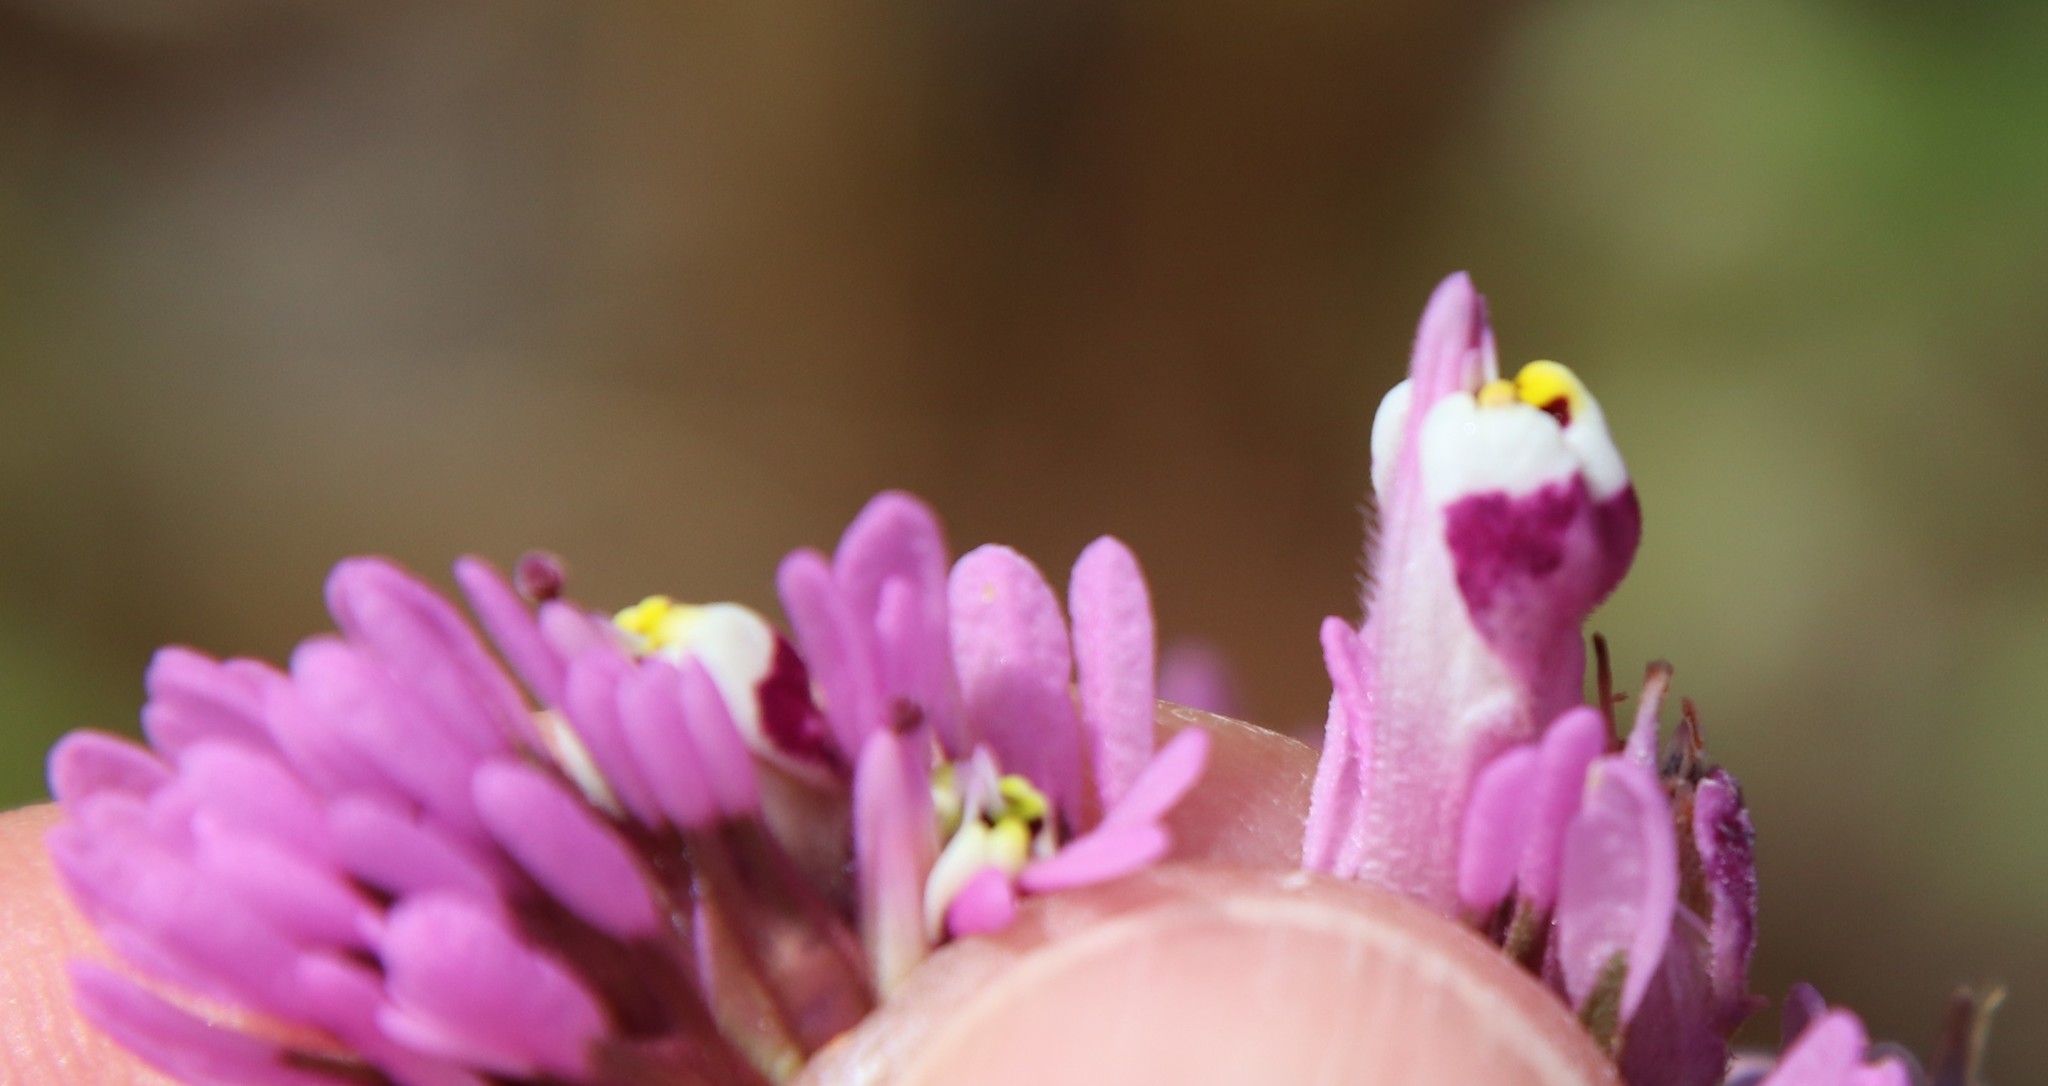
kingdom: Plantae
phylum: Tracheophyta
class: Magnoliopsida
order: Lamiales
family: Orobanchaceae
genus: Castilleja
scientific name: Castilleja densiflora
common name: Dense-flower indian paintbrush
